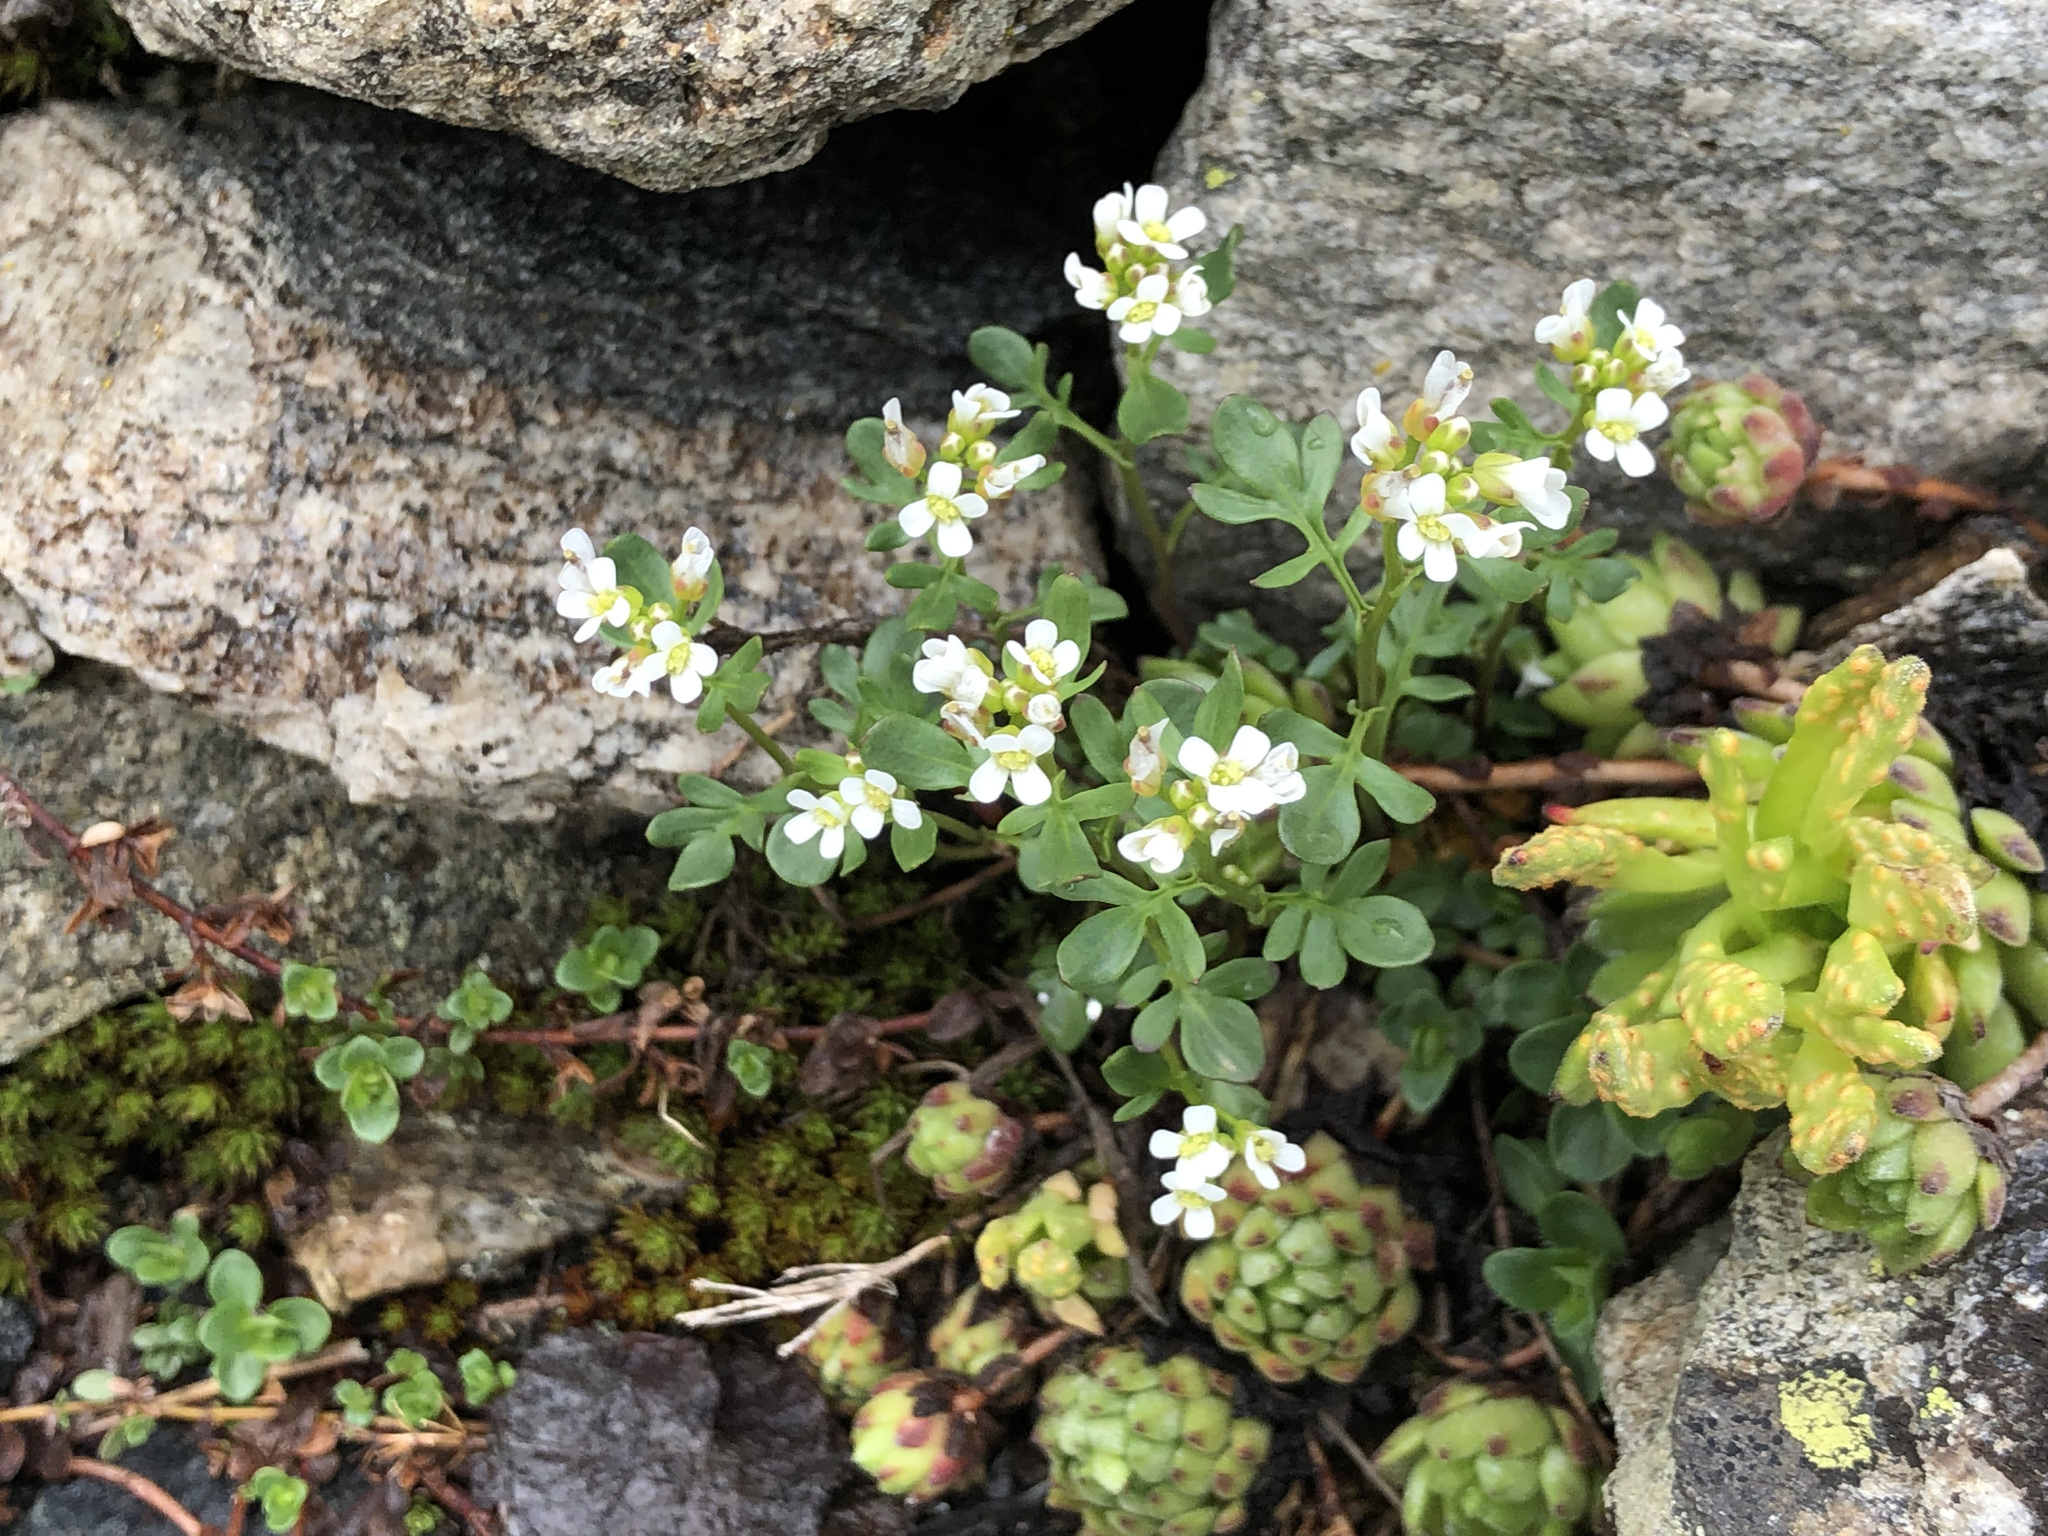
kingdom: Plantae
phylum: Tracheophyta
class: Magnoliopsida
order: Brassicales
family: Brassicaceae
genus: Cardamine
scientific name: Cardamine resedifolia
